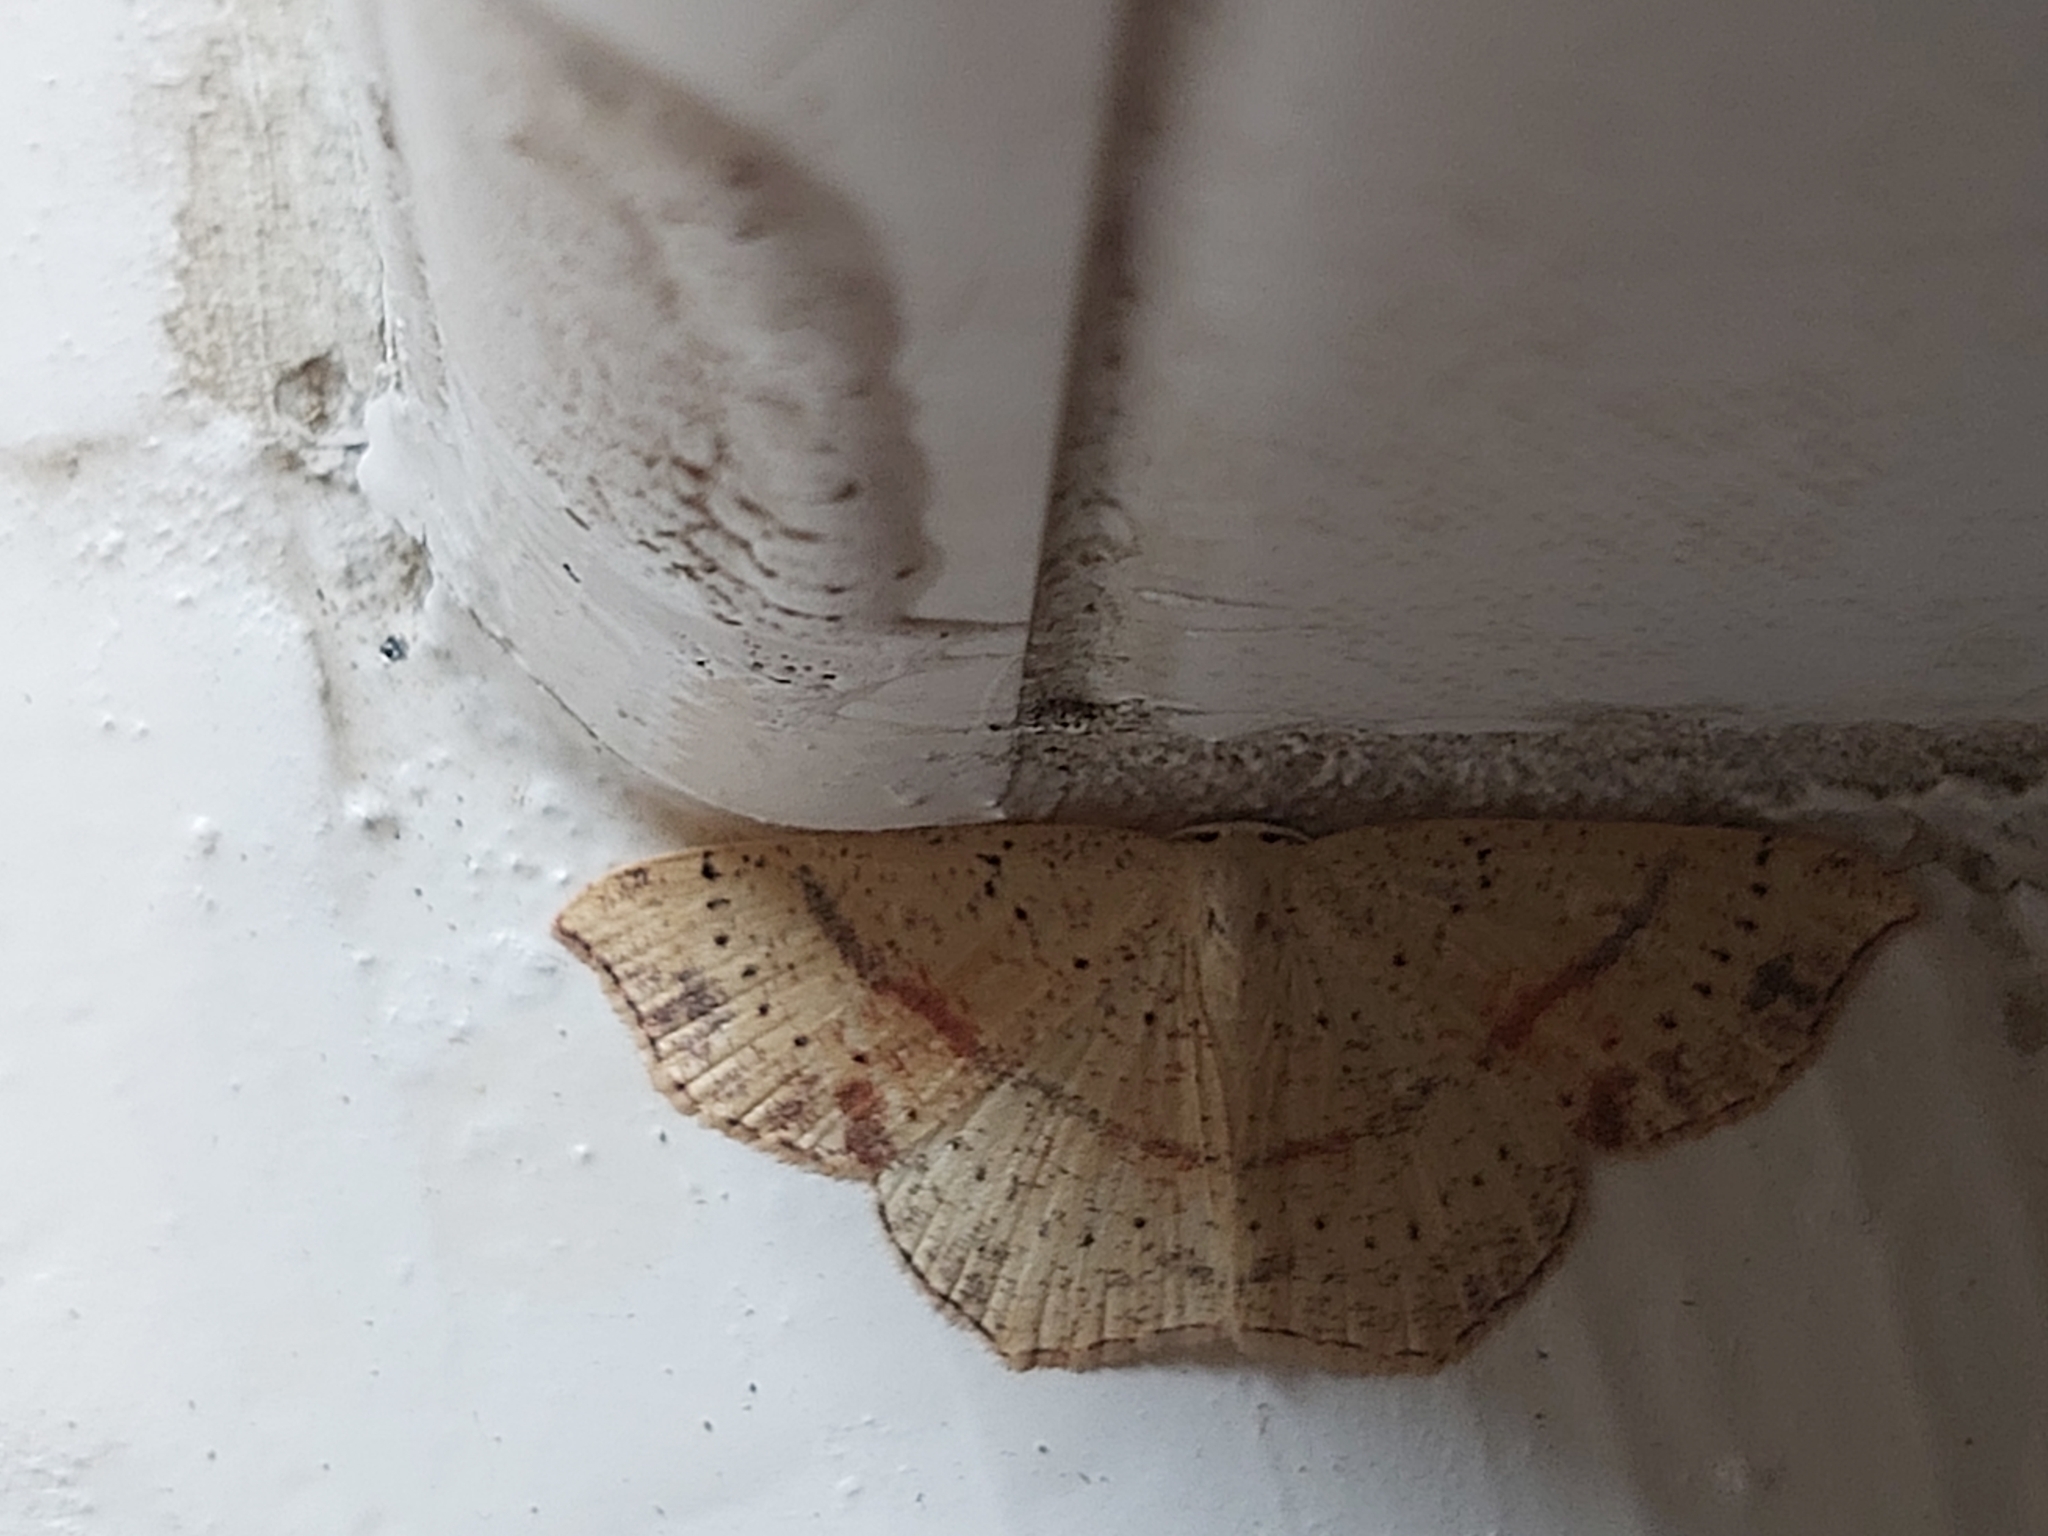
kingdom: Animalia
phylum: Arthropoda
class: Insecta
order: Lepidoptera
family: Geometridae
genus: Cyclophora
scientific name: Cyclophora punctaria
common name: Maiden's blush
